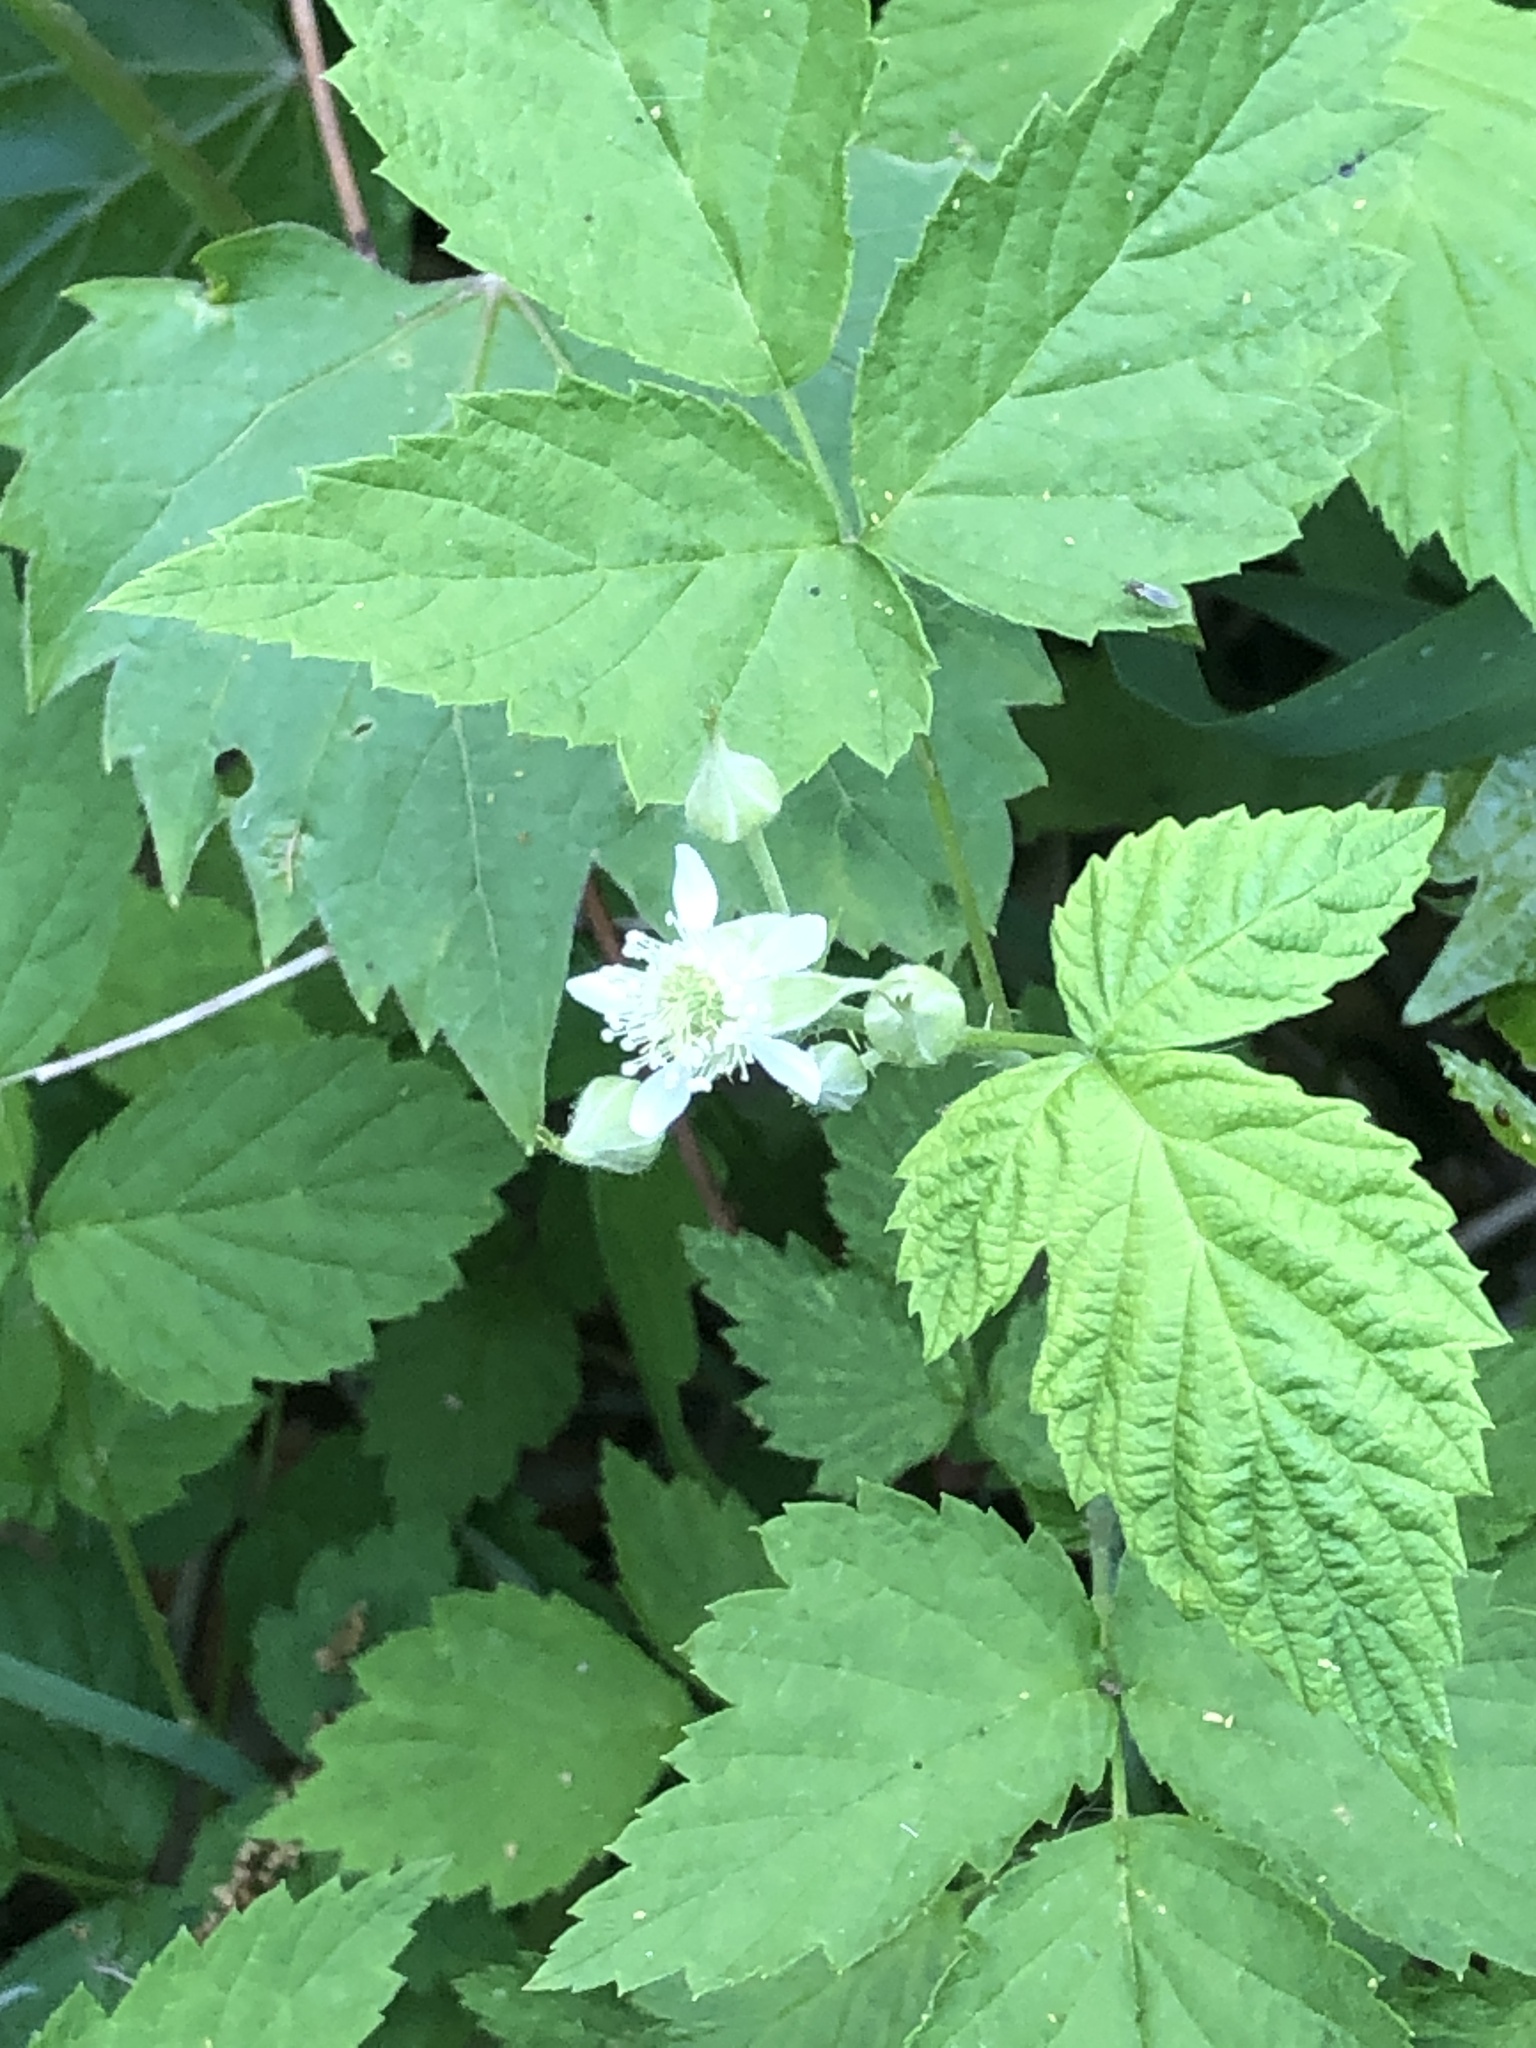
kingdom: Plantae
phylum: Tracheophyta
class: Magnoliopsida
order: Rosales
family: Rosaceae
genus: Rubus
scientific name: Rubus occidentalis
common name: Black raspberry
